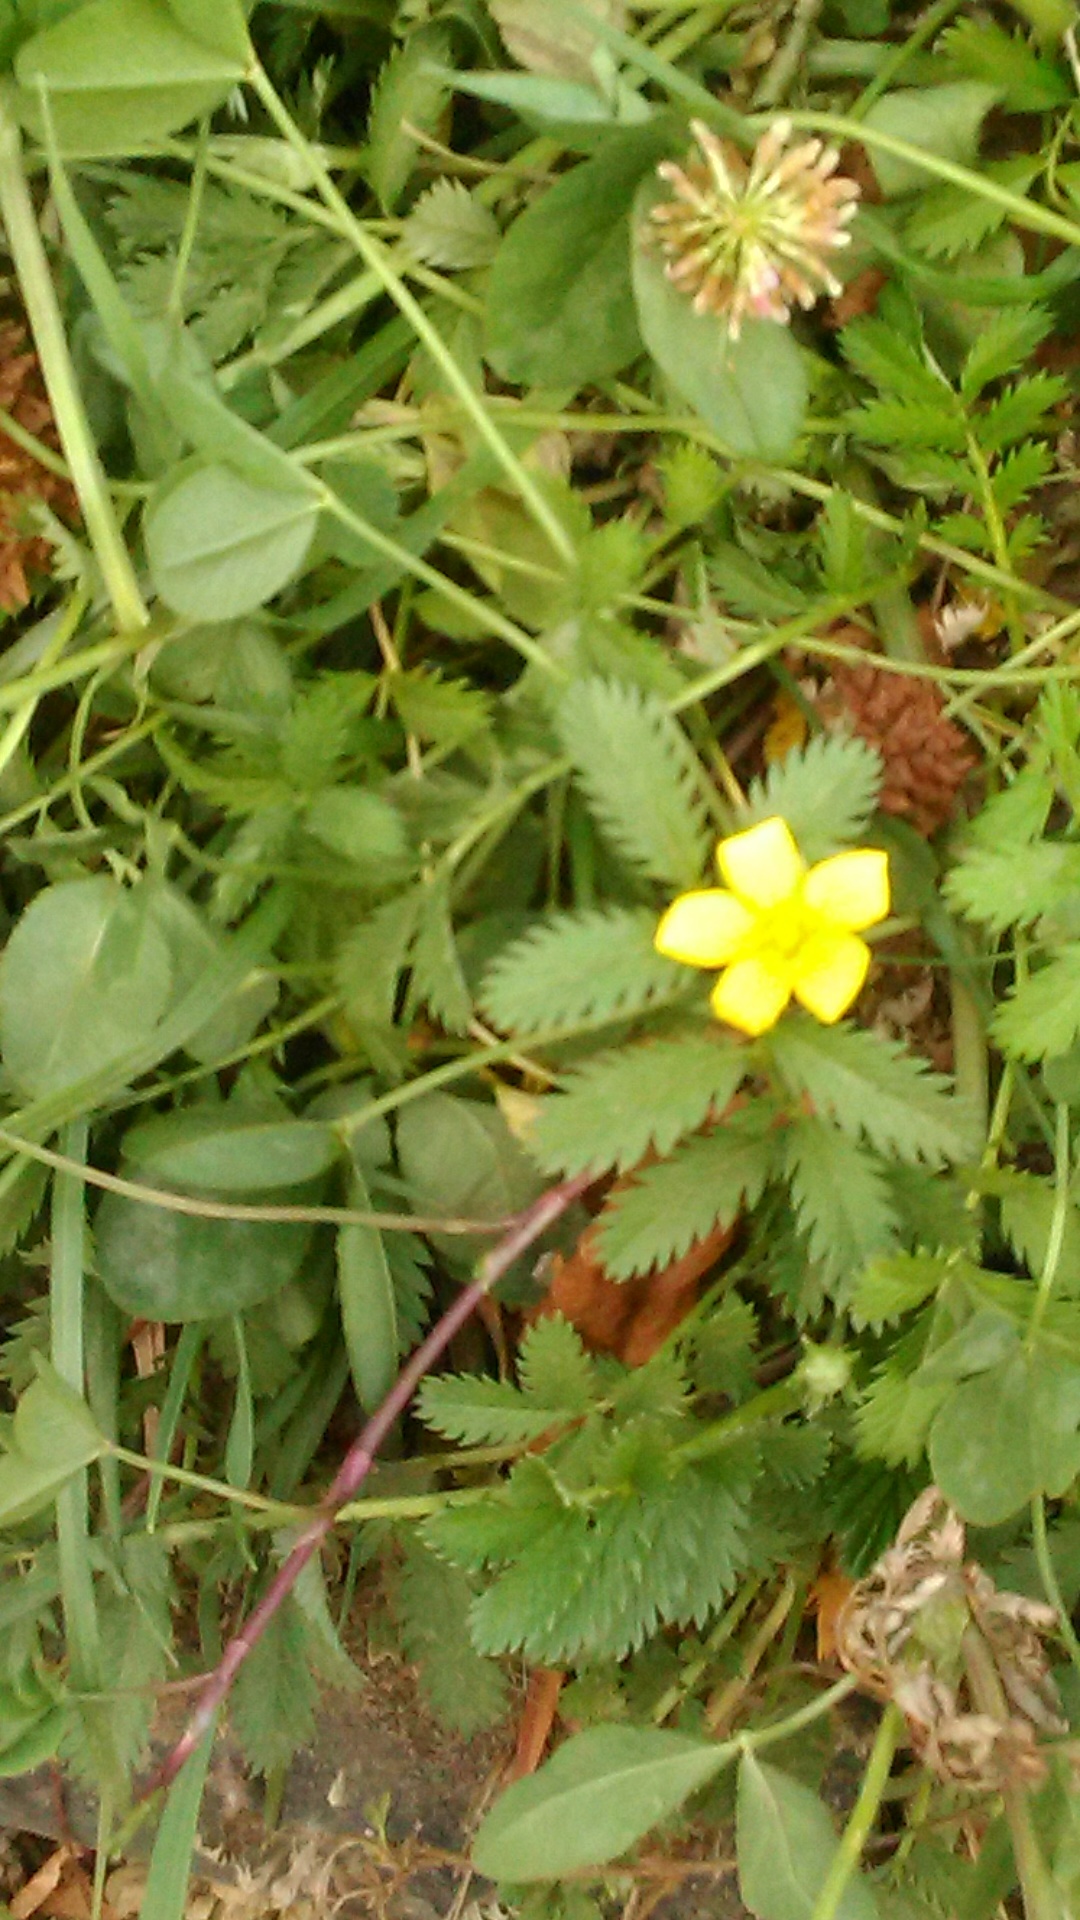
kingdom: Plantae
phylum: Tracheophyta
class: Magnoliopsida
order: Rosales
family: Rosaceae
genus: Argentina
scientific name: Argentina anserina
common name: Common silverweed
